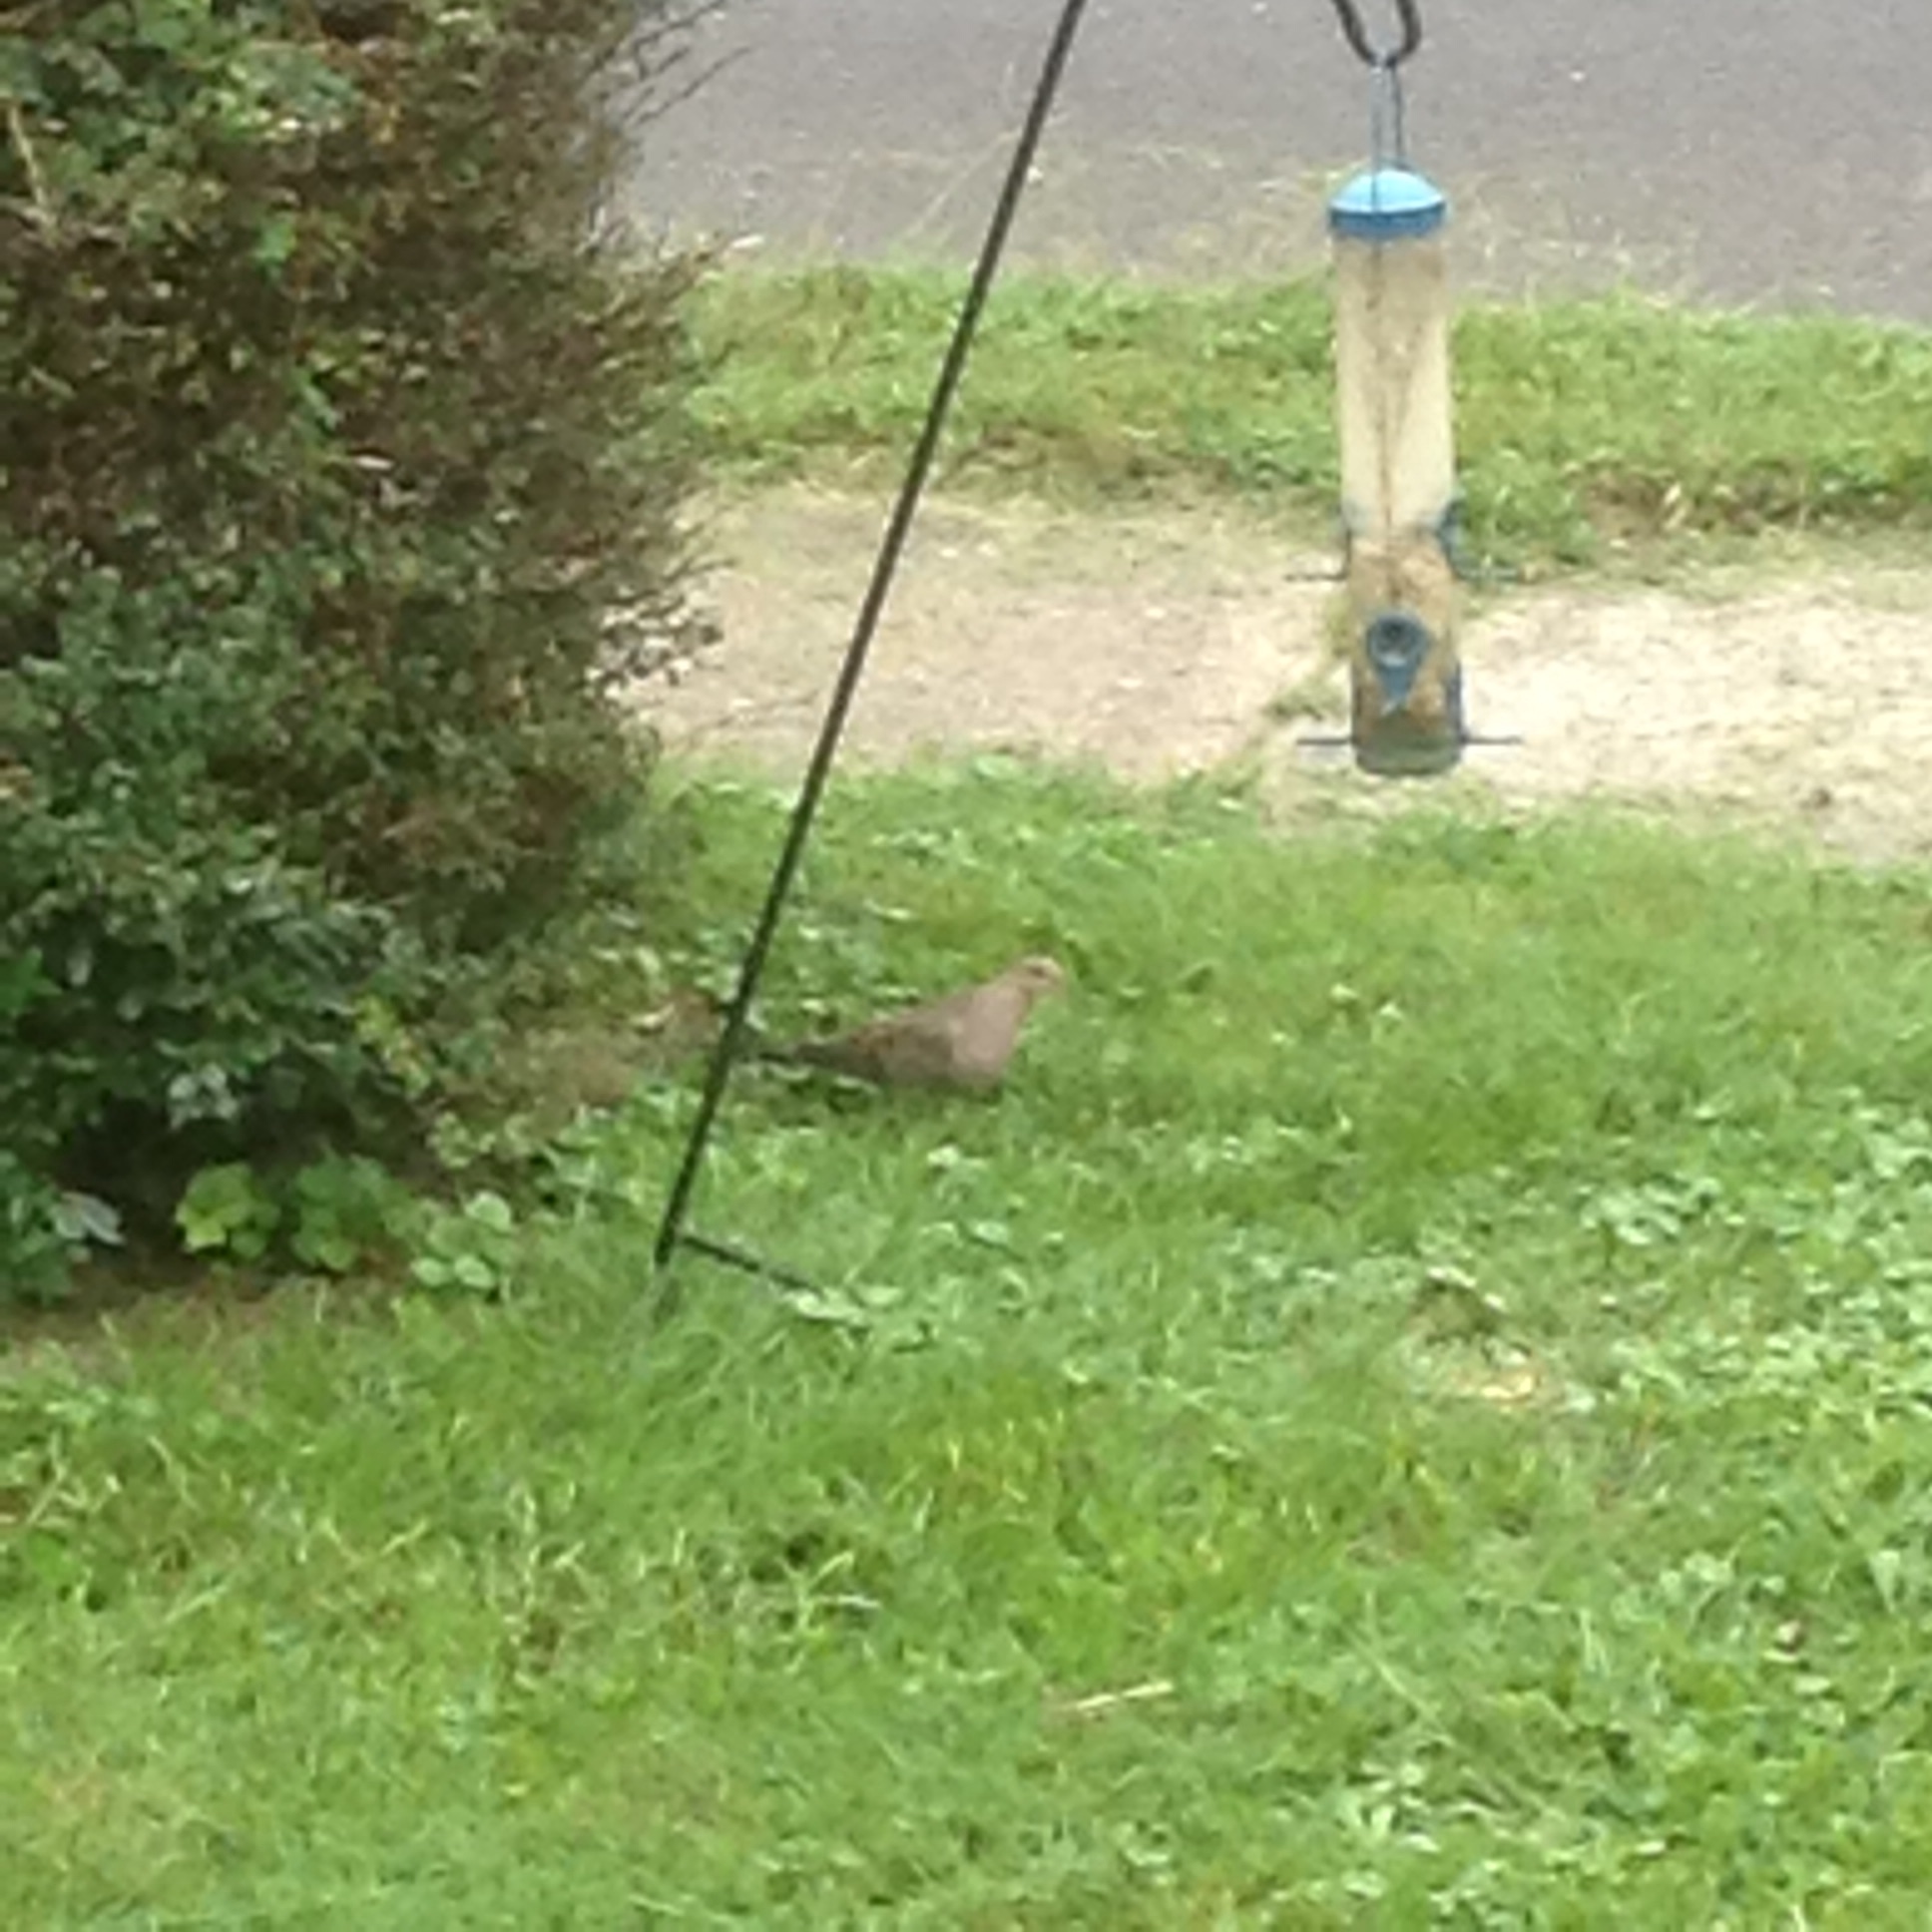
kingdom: Animalia
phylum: Chordata
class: Aves
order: Columbiformes
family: Columbidae
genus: Zenaida
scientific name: Zenaida macroura
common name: Mourning dove
